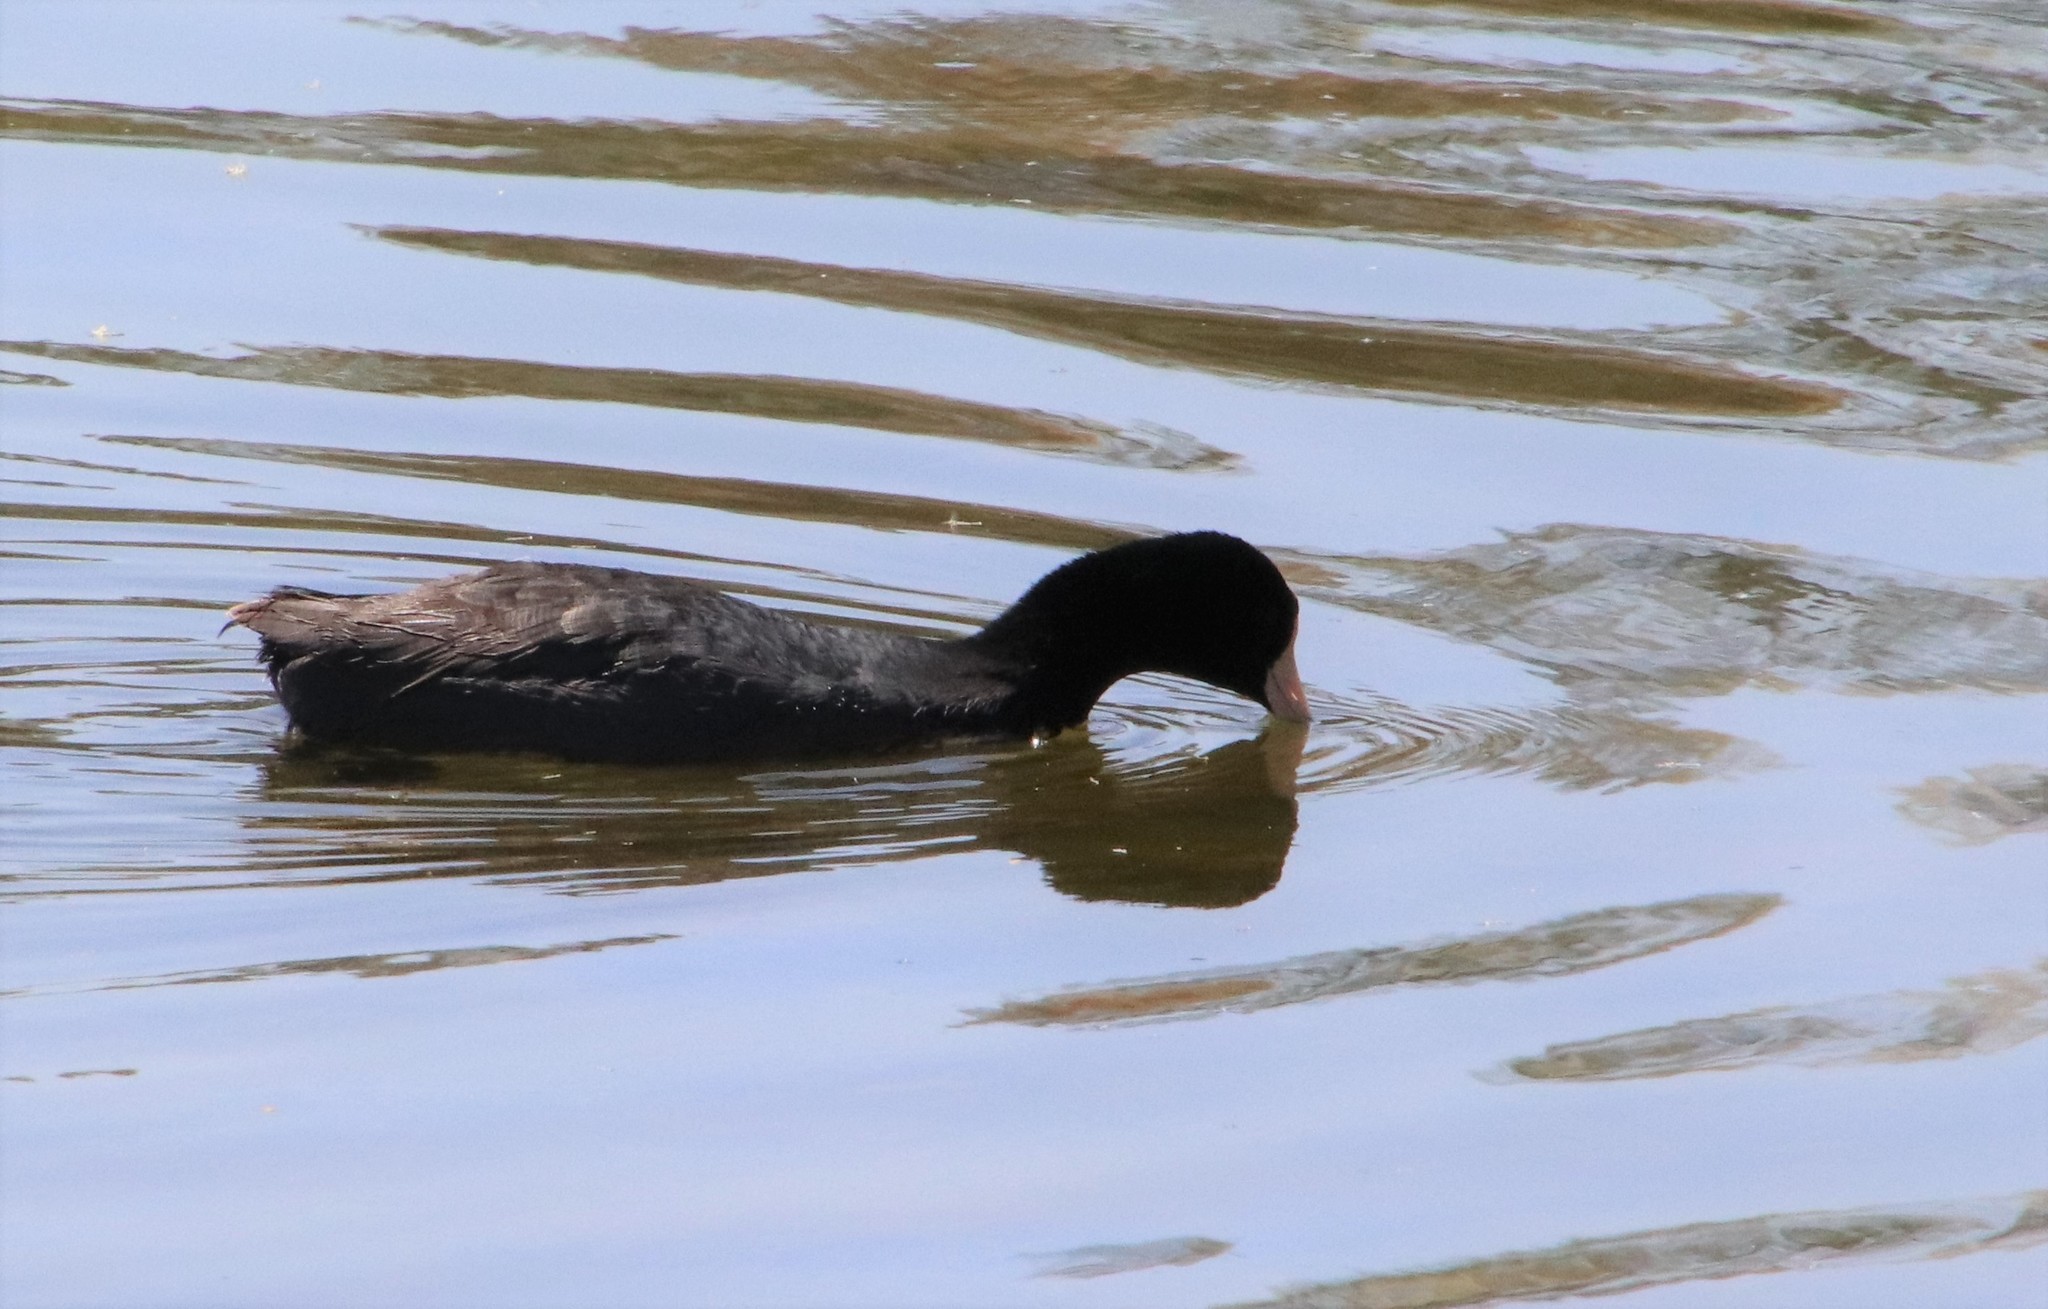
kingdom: Animalia
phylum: Chordata
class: Aves
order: Gruiformes
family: Rallidae
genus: Fulica
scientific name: Fulica americana
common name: American coot
